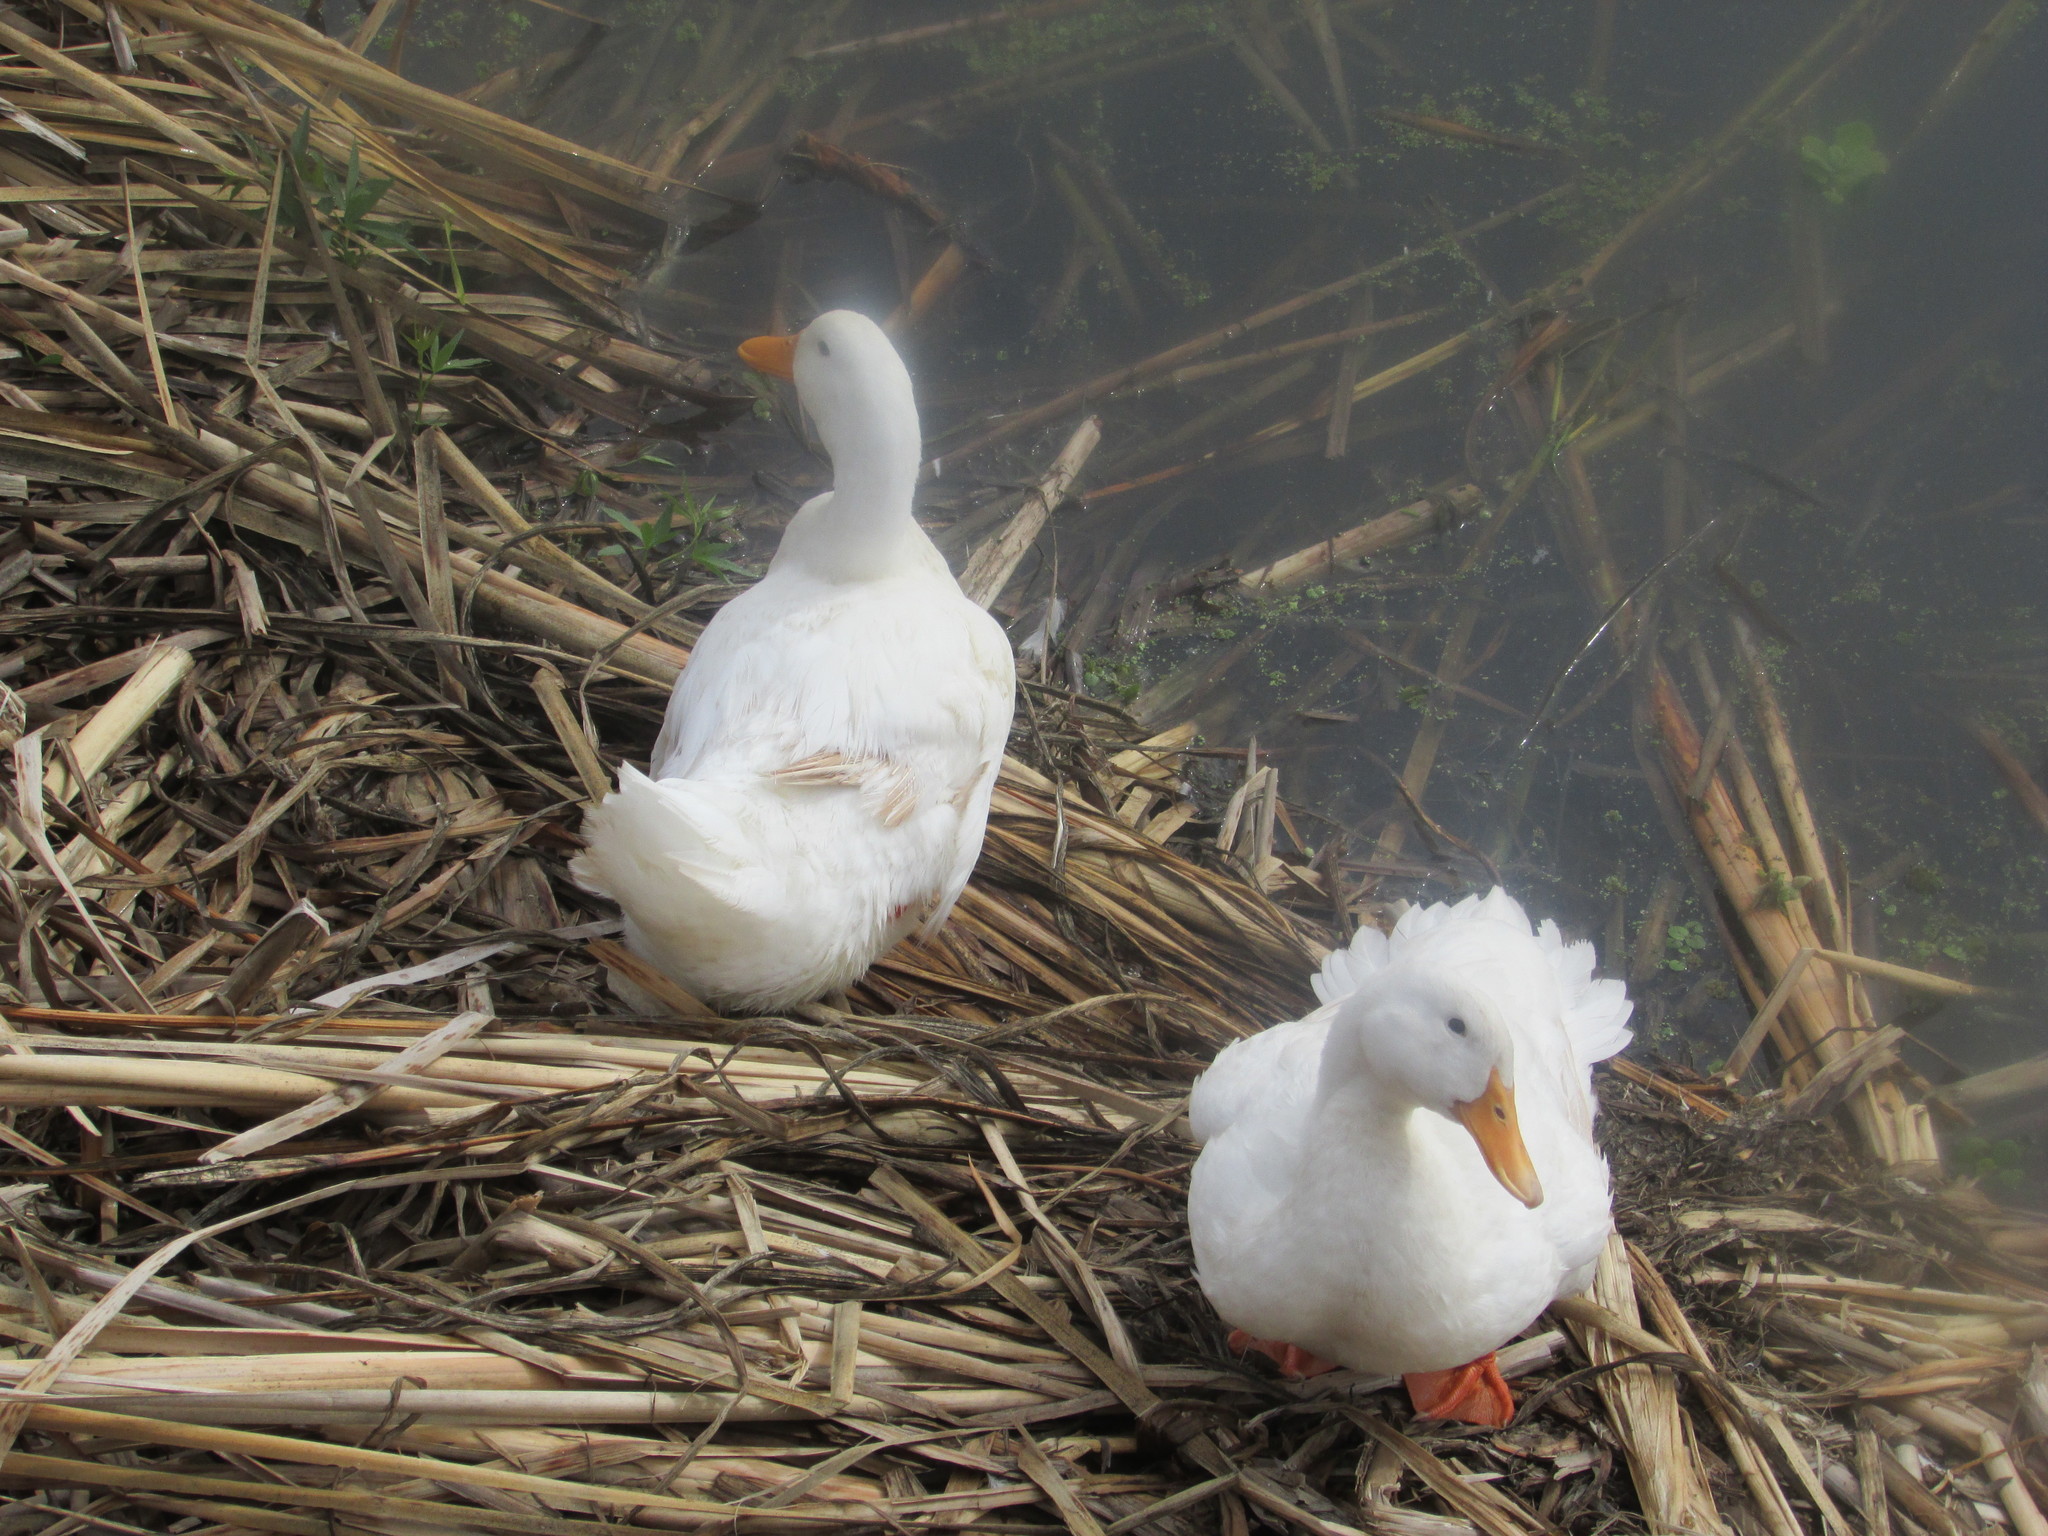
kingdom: Animalia
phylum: Chordata
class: Aves
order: Anseriformes
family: Anatidae
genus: Anas
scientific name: Anas platyrhynchos
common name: Mallard
